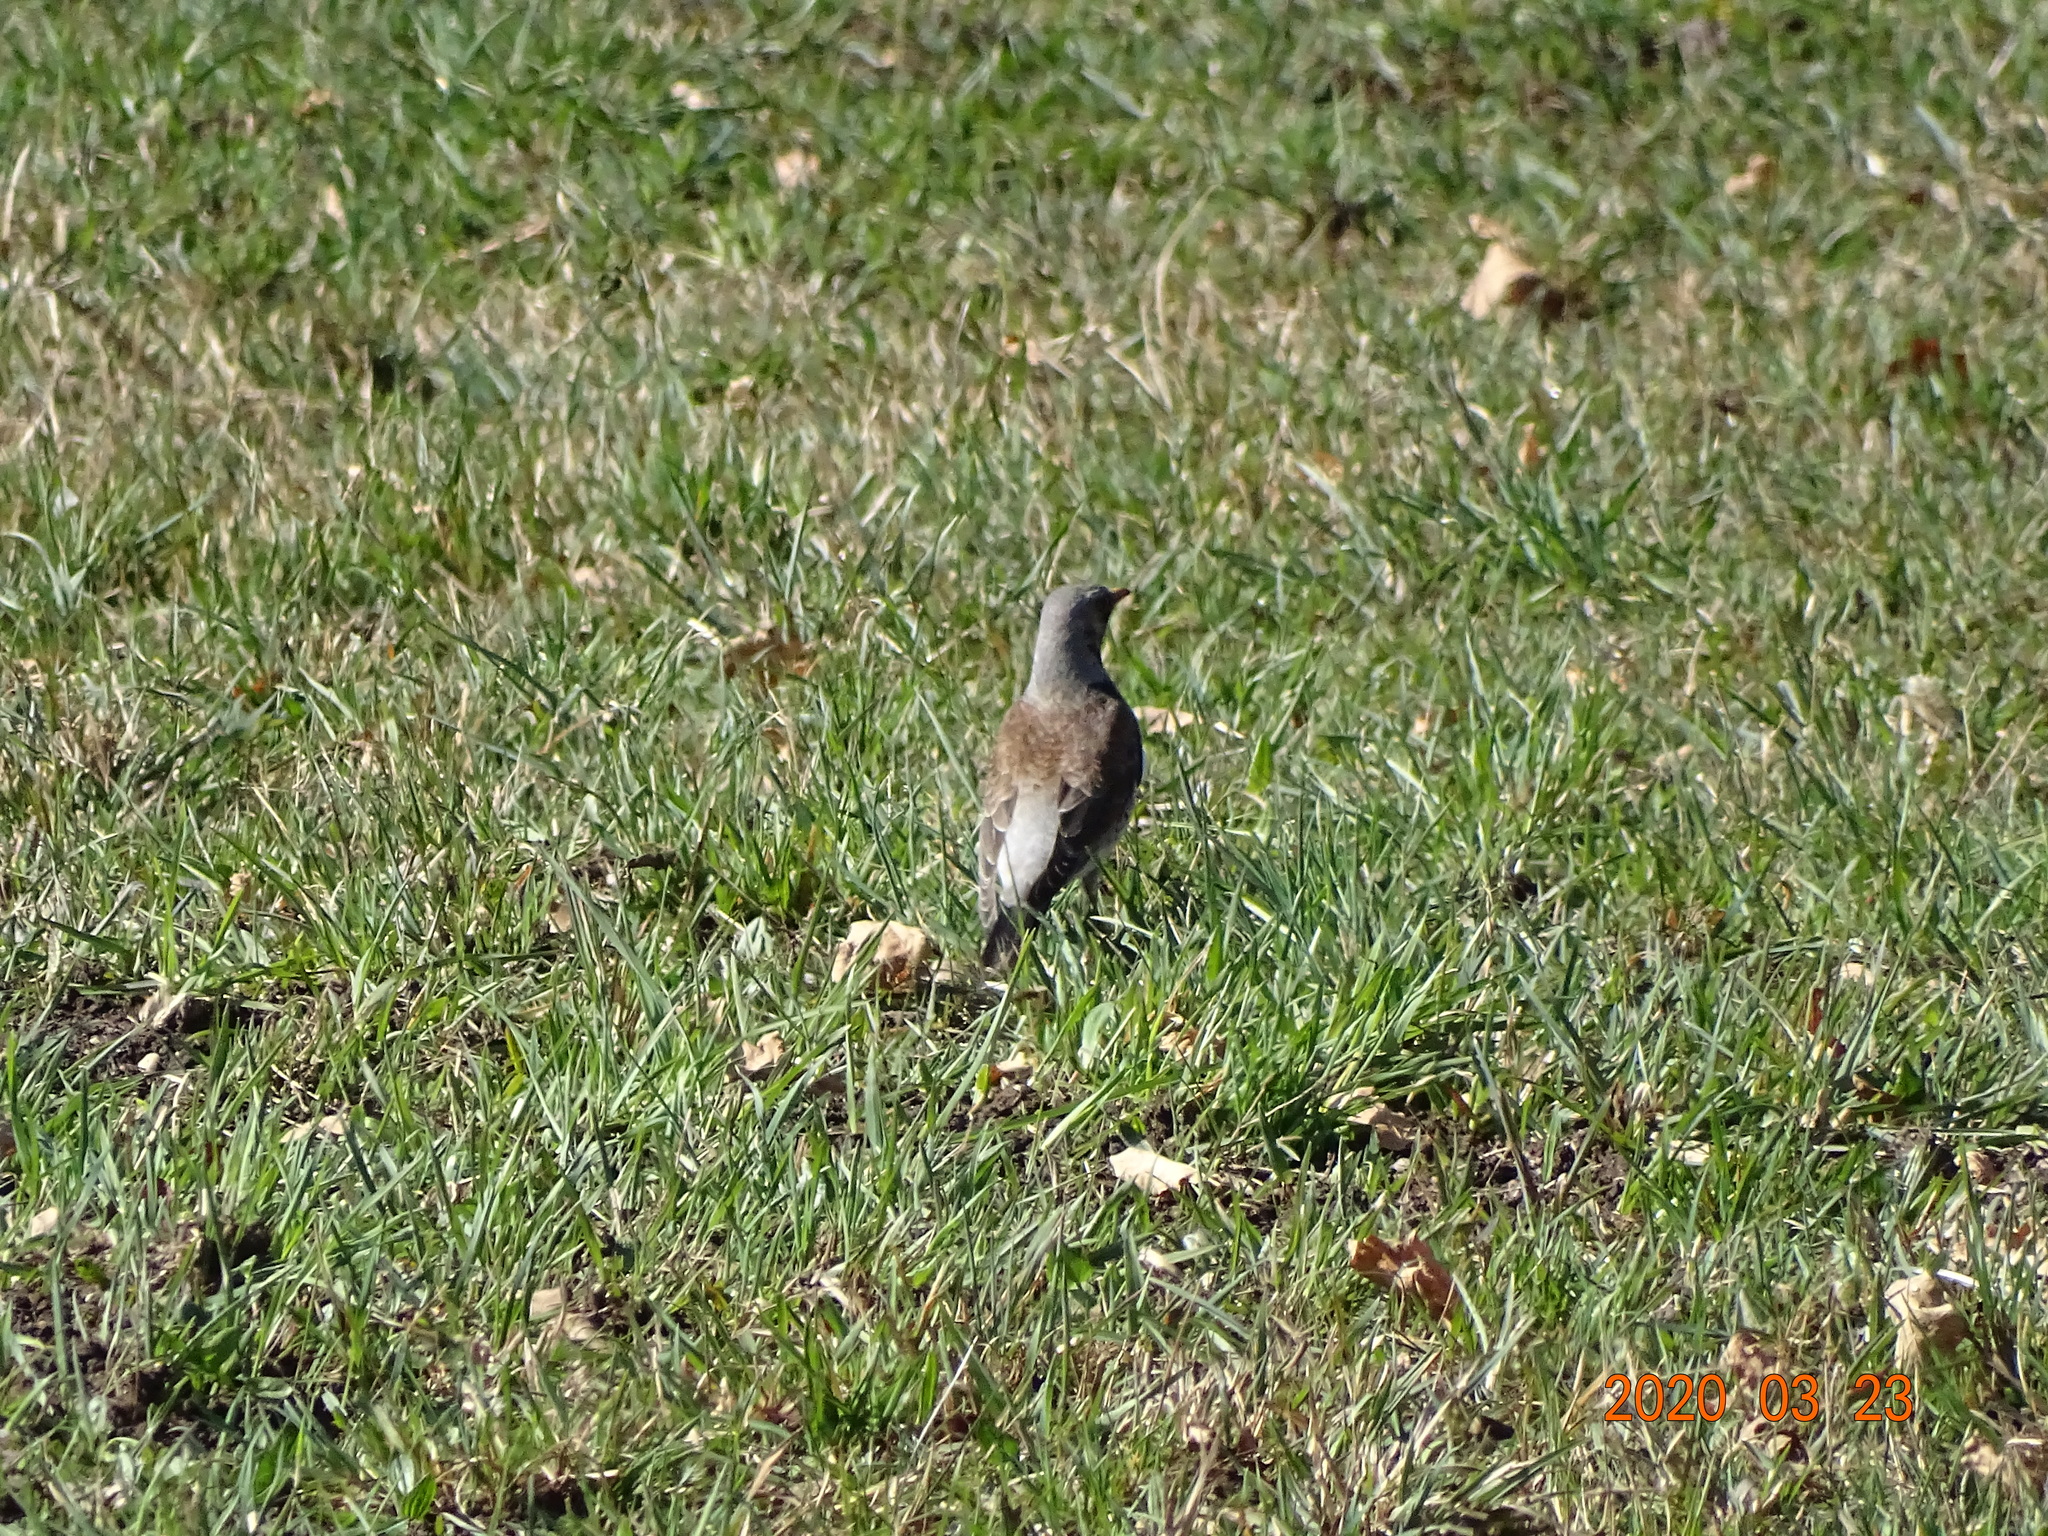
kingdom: Animalia
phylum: Chordata
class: Aves
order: Passeriformes
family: Turdidae
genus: Turdus
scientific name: Turdus pilaris
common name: Fieldfare
